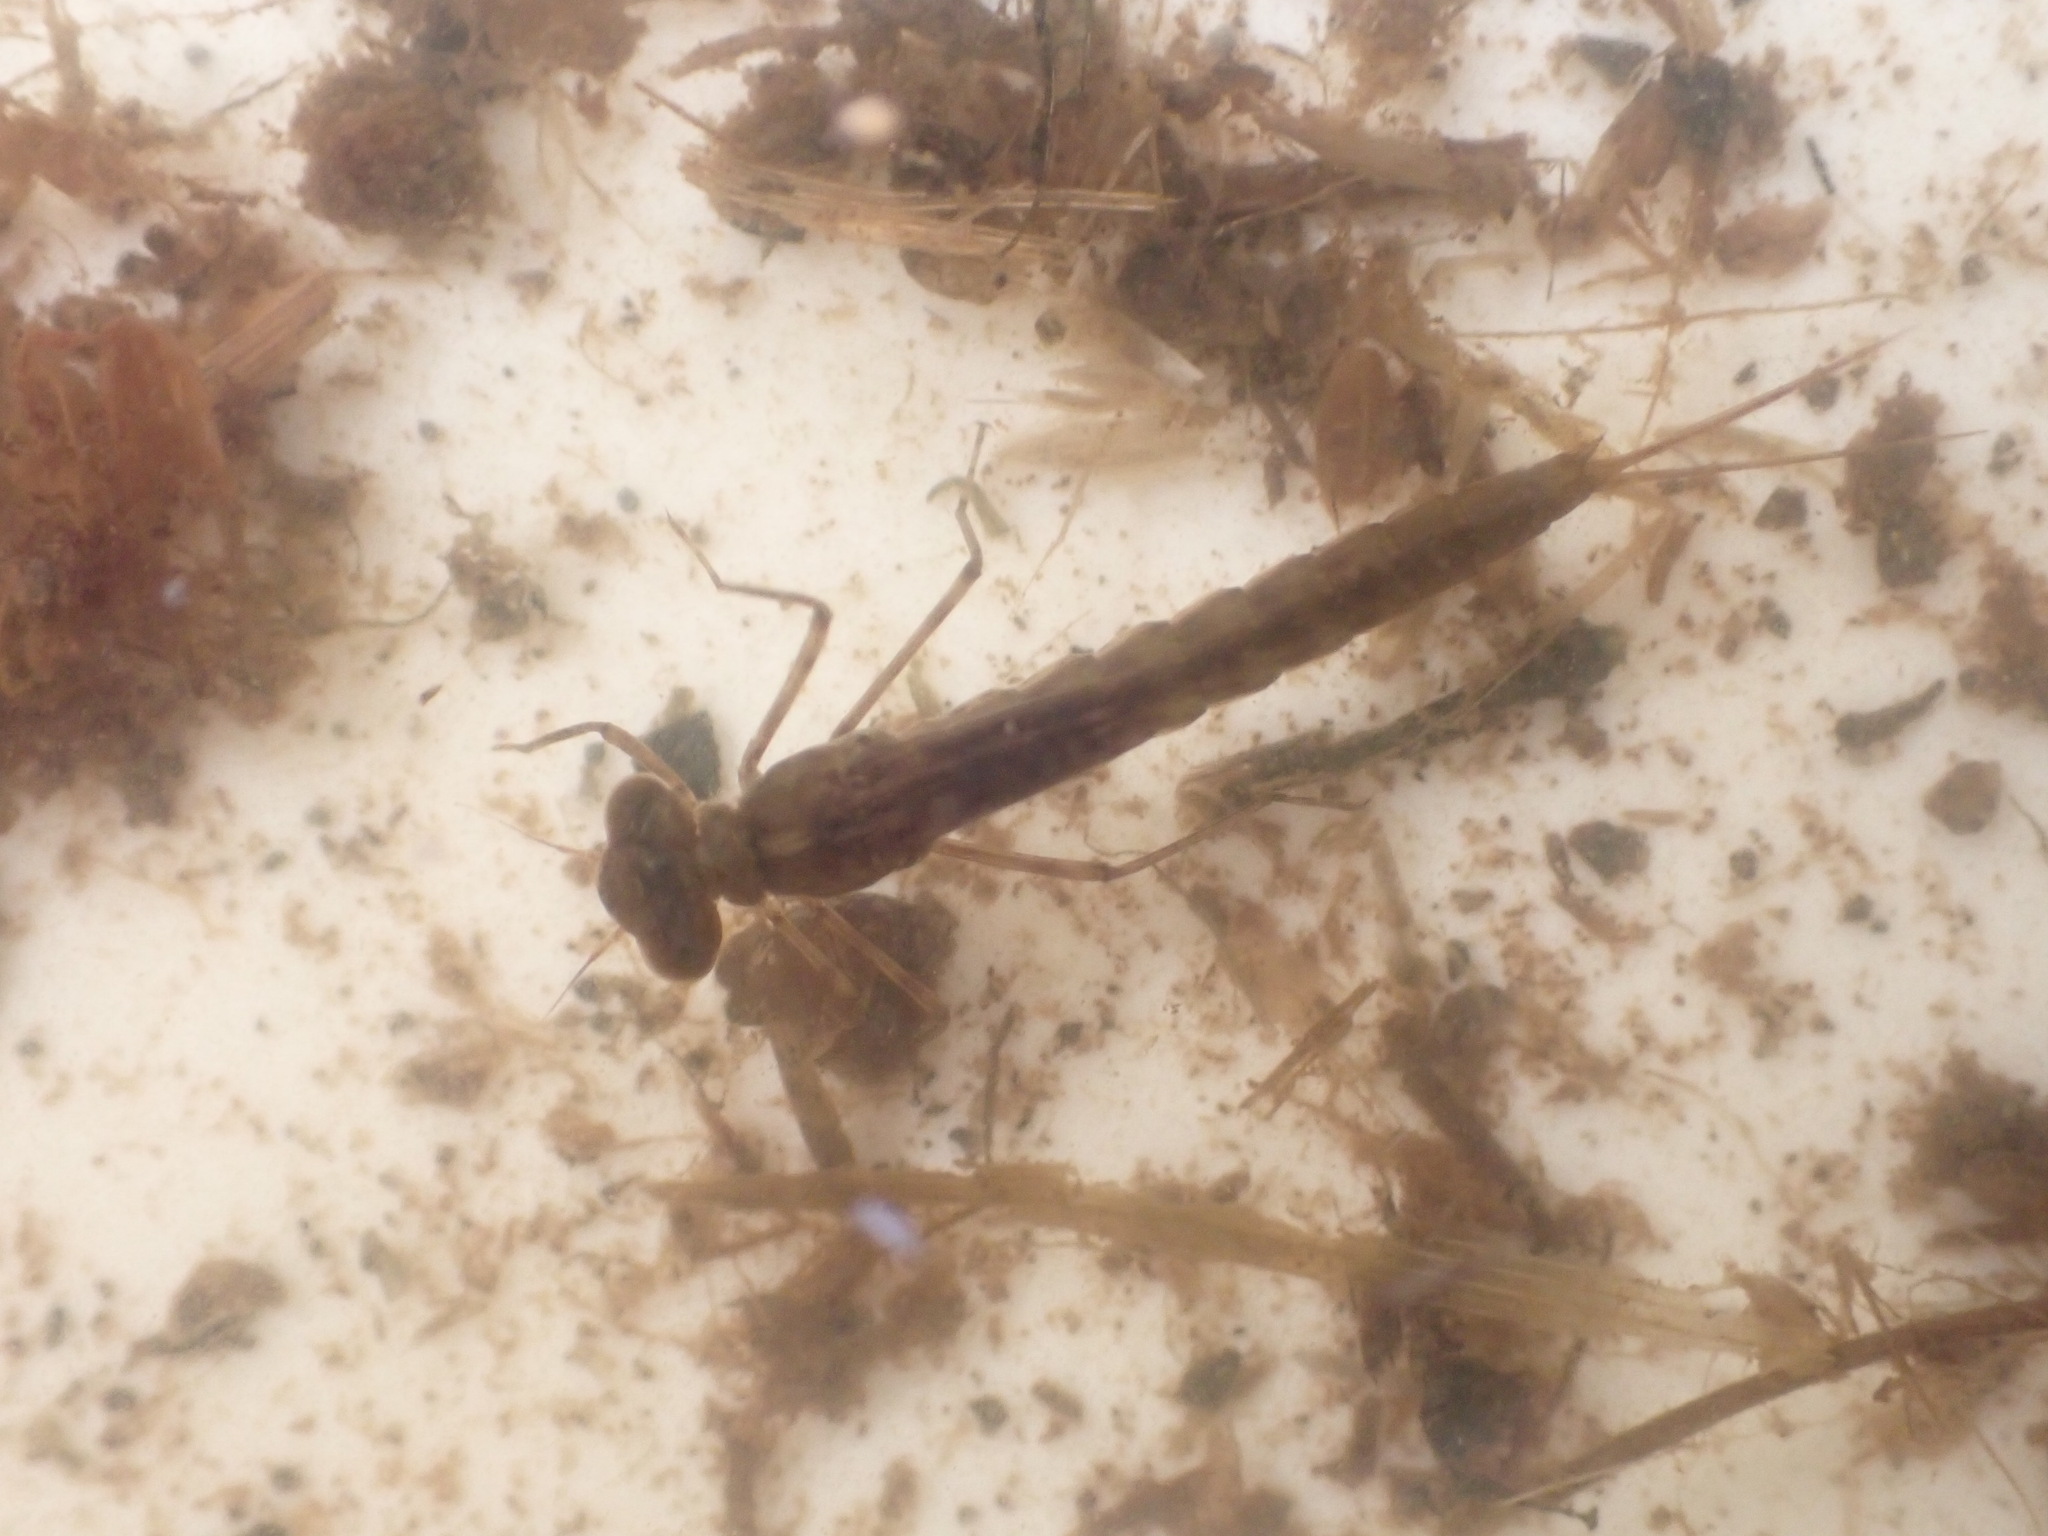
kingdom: Animalia
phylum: Arthropoda
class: Insecta
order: Odonata
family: Lestidae
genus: Austrolestes
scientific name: Austrolestes colensonis
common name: Blue damselfly
